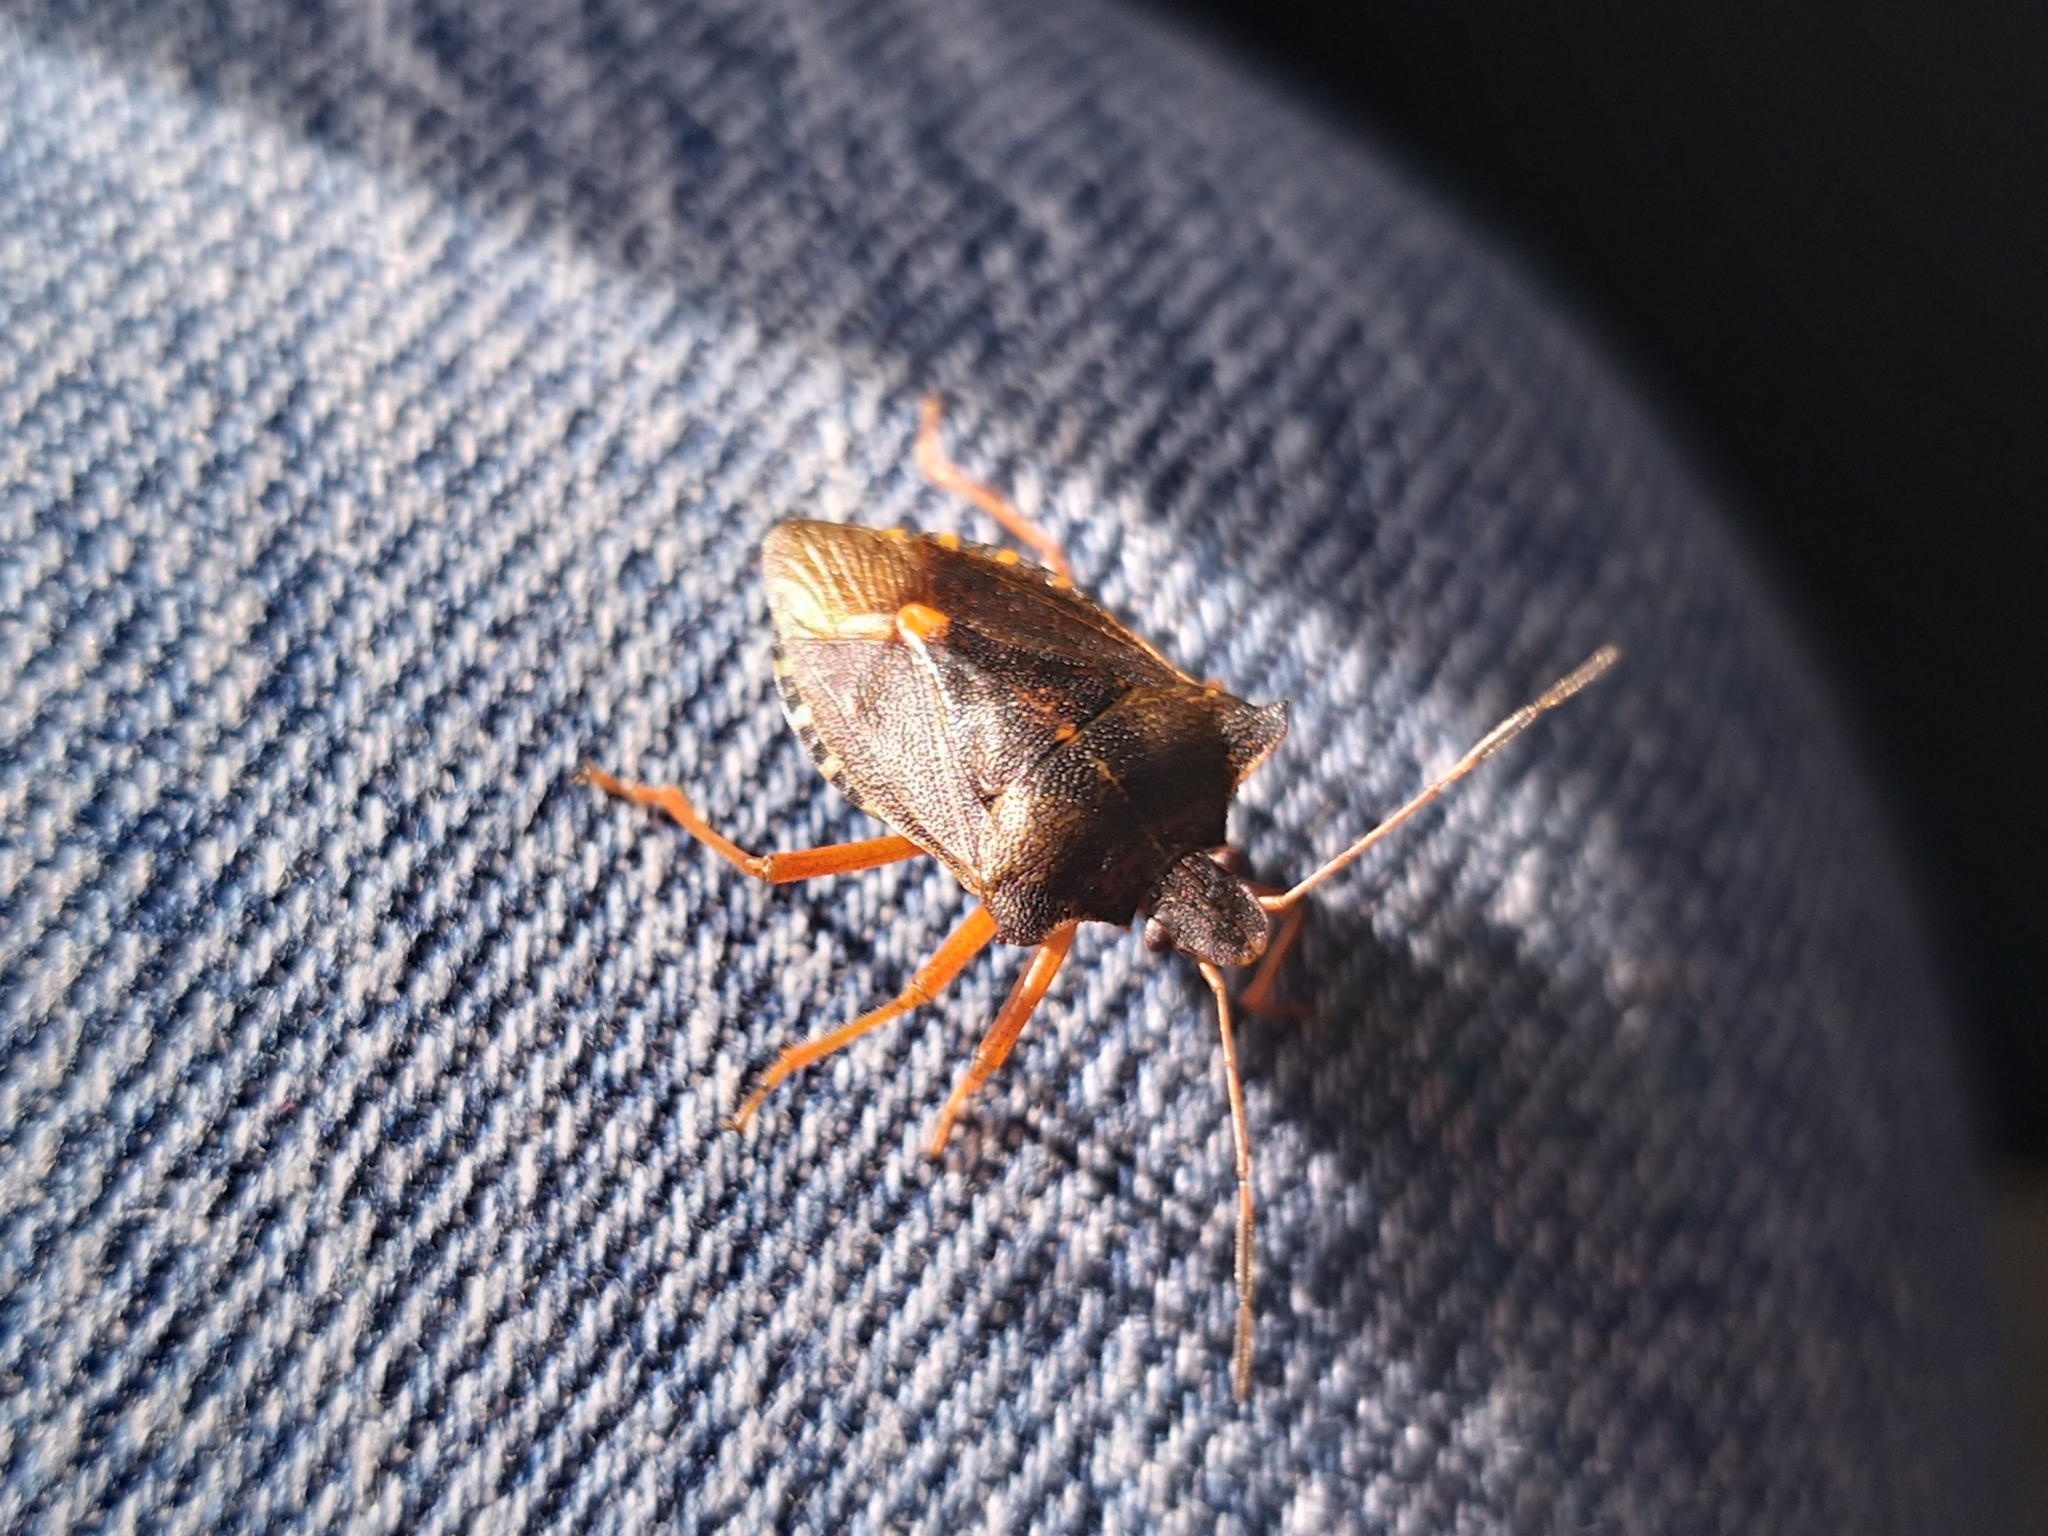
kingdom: Animalia
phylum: Arthropoda
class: Insecta
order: Hemiptera
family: Pentatomidae
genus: Pentatoma
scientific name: Pentatoma rufipes
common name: Forest bug
